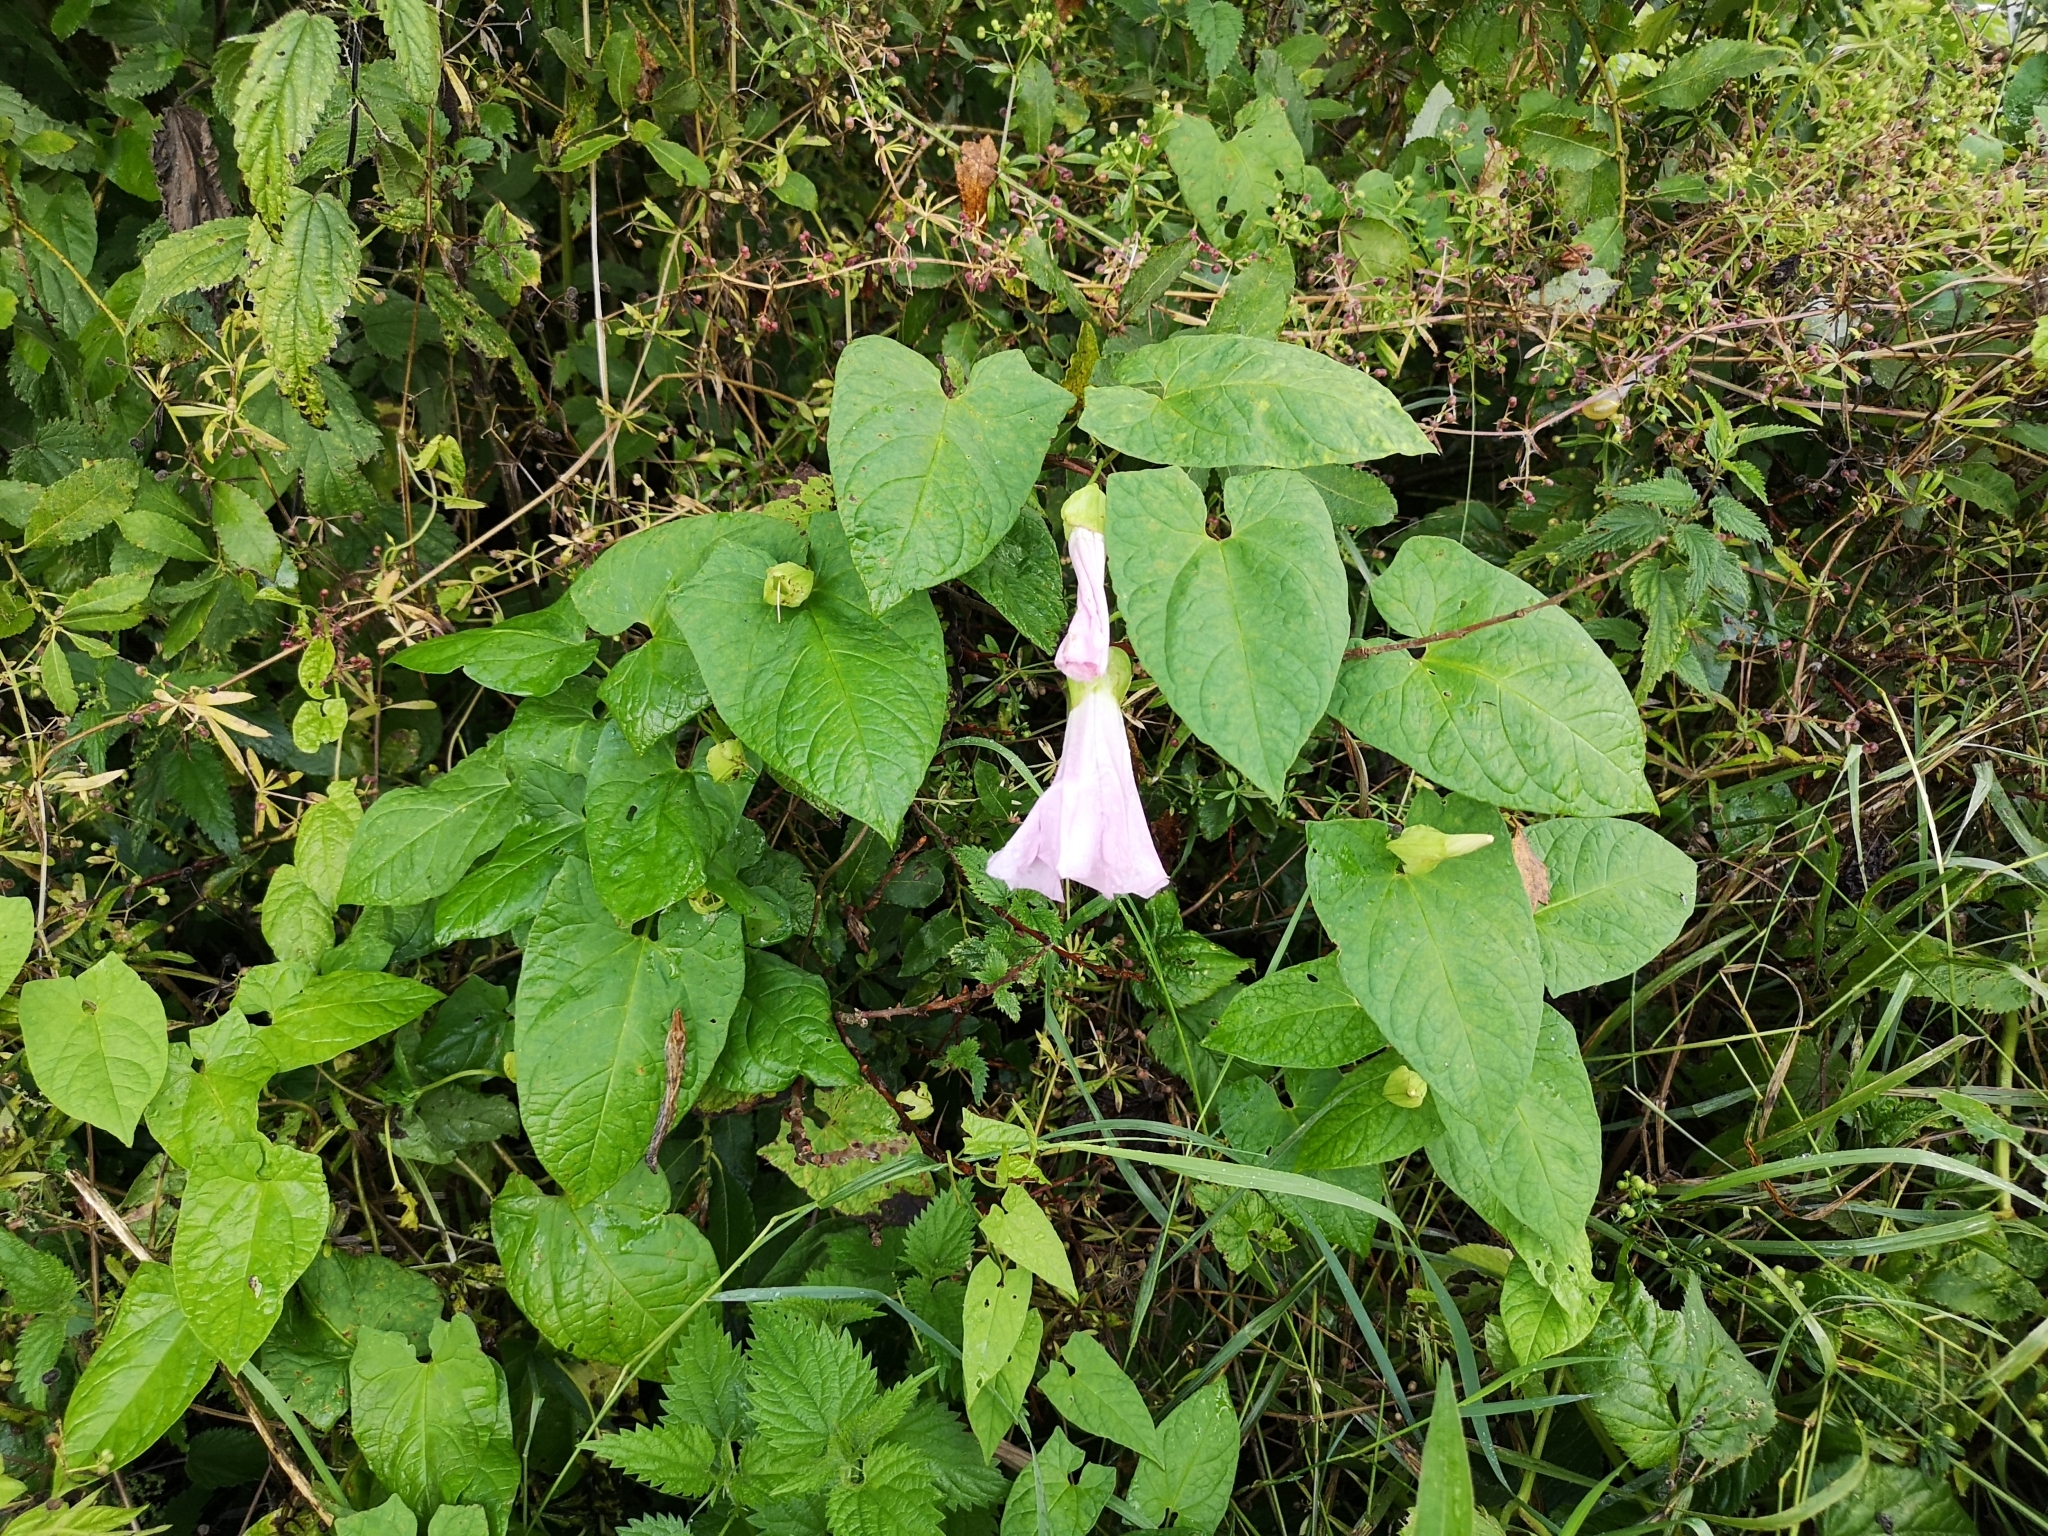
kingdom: Plantae
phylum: Tracheophyta
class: Magnoliopsida
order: Solanales
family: Convolvulaceae
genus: Calystegia
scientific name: Calystegia pulchra
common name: Hairy bindweed
